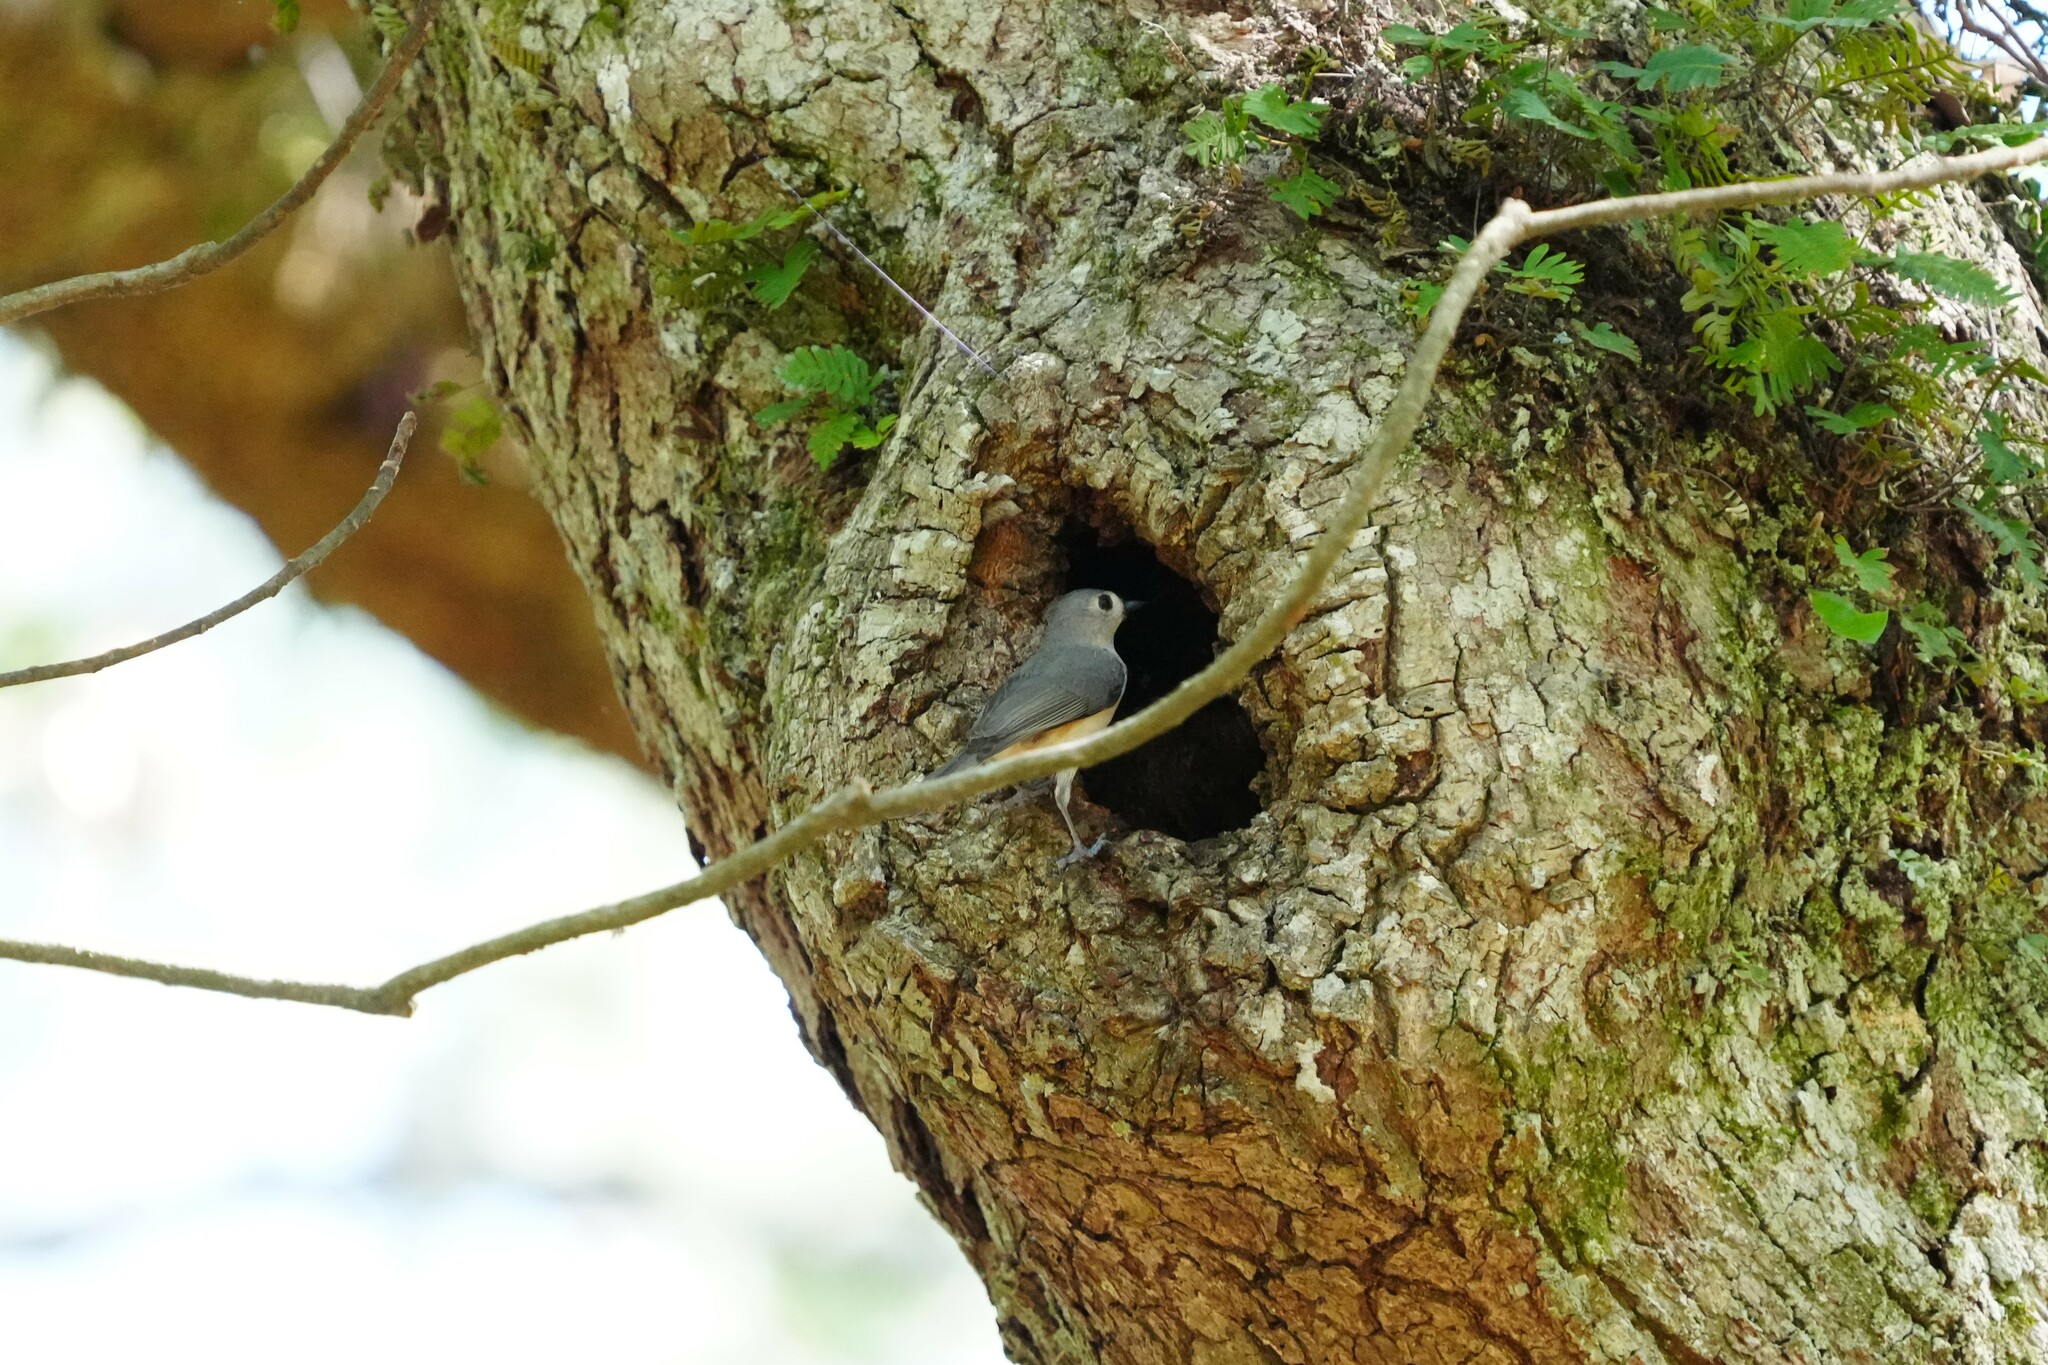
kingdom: Animalia
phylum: Chordata
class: Aves
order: Passeriformes
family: Paridae
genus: Baeolophus
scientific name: Baeolophus bicolor
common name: Tufted titmouse
